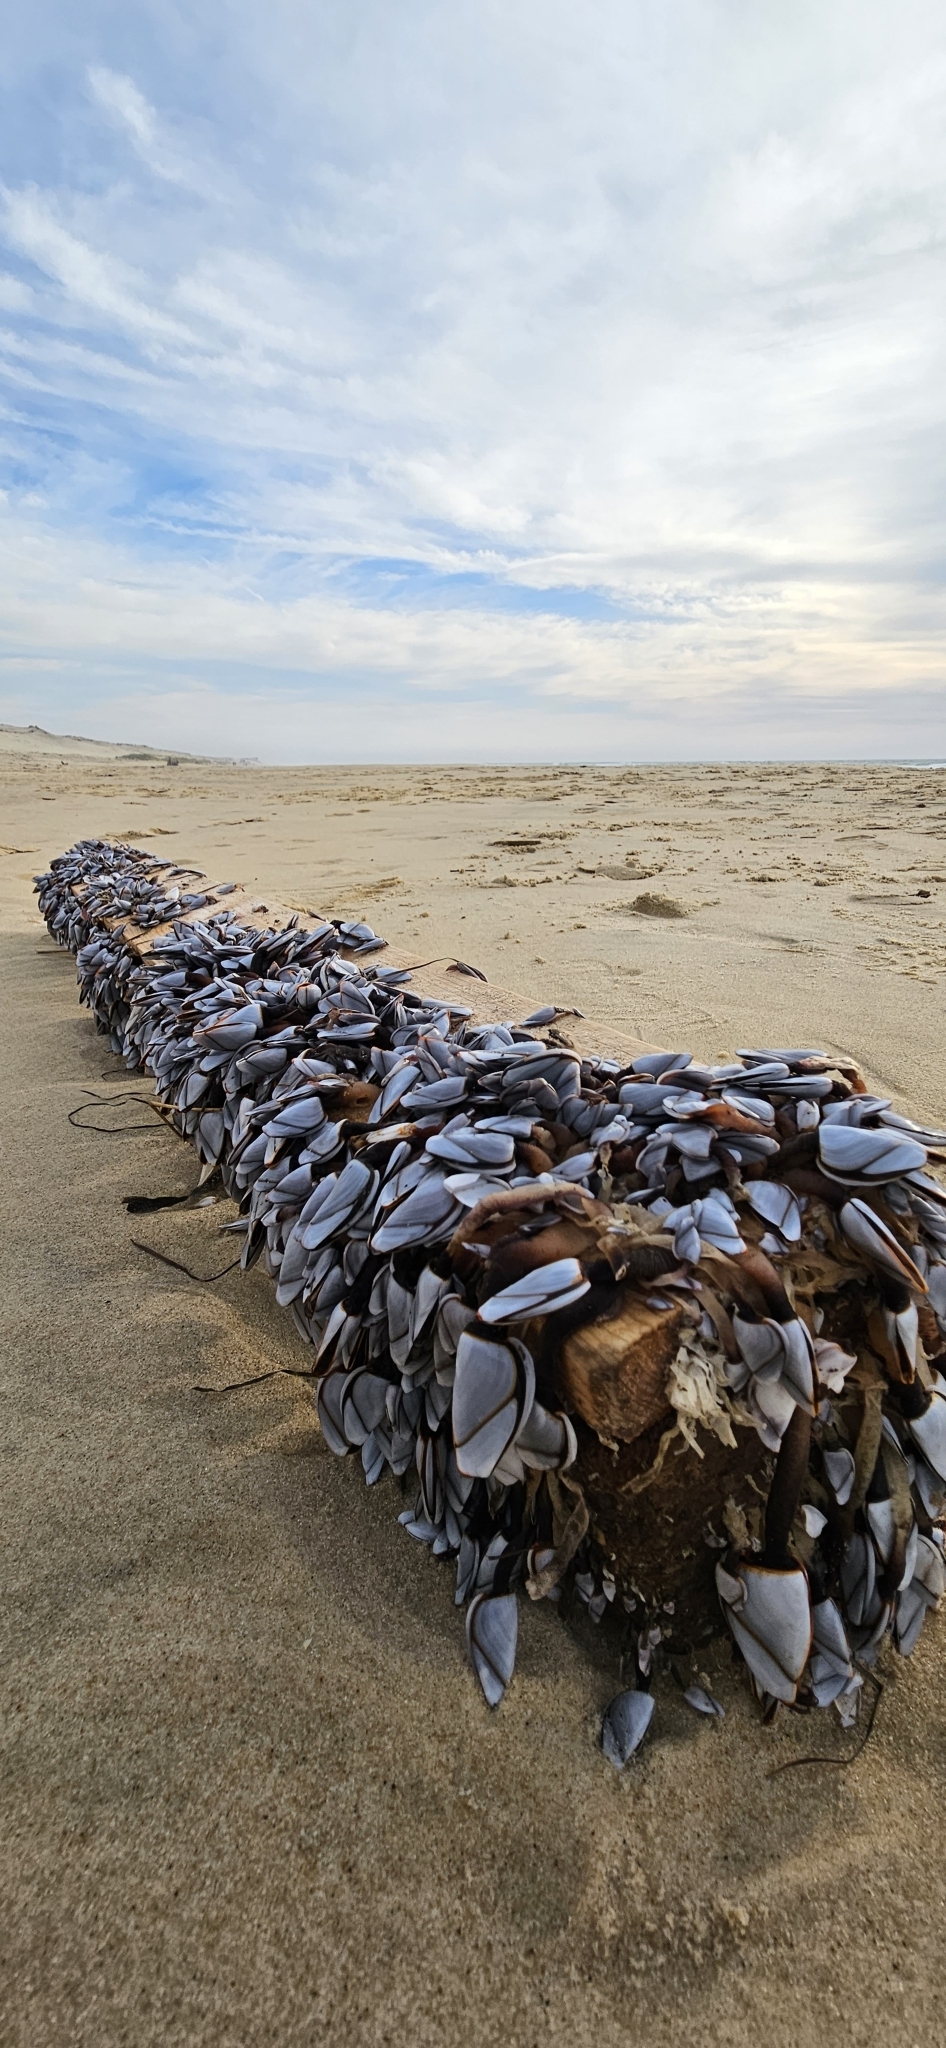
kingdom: Animalia
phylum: Arthropoda
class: Maxillopoda
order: Pedunculata
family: Lepadidae
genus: Lepas
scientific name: Lepas anatifera
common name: Common goose barnacle
